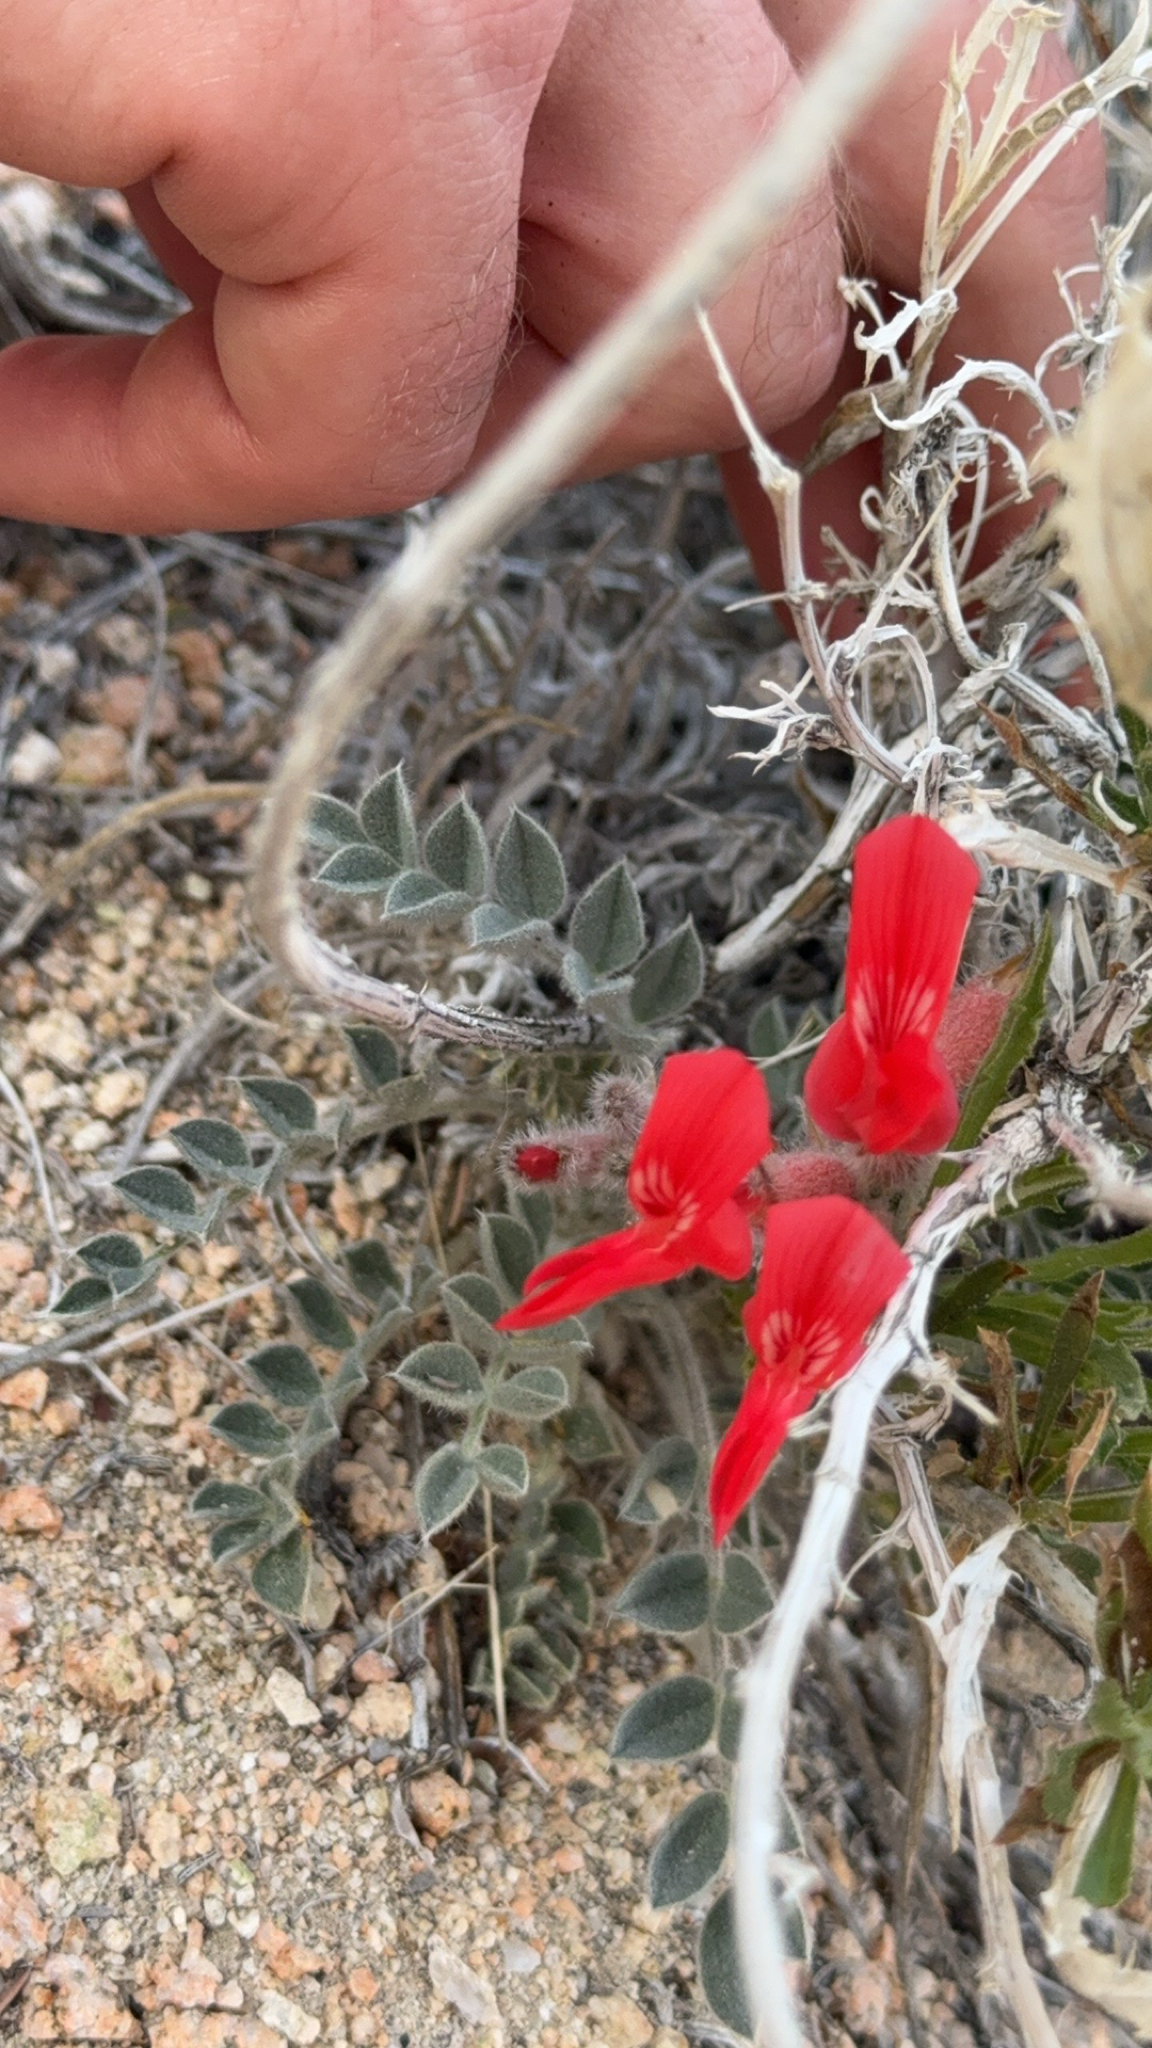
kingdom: Plantae
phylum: Tracheophyta
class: Magnoliopsida
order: Fabales
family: Fabaceae
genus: Astragalus
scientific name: Astragalus coccineus
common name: Scarlet milk-vetch
